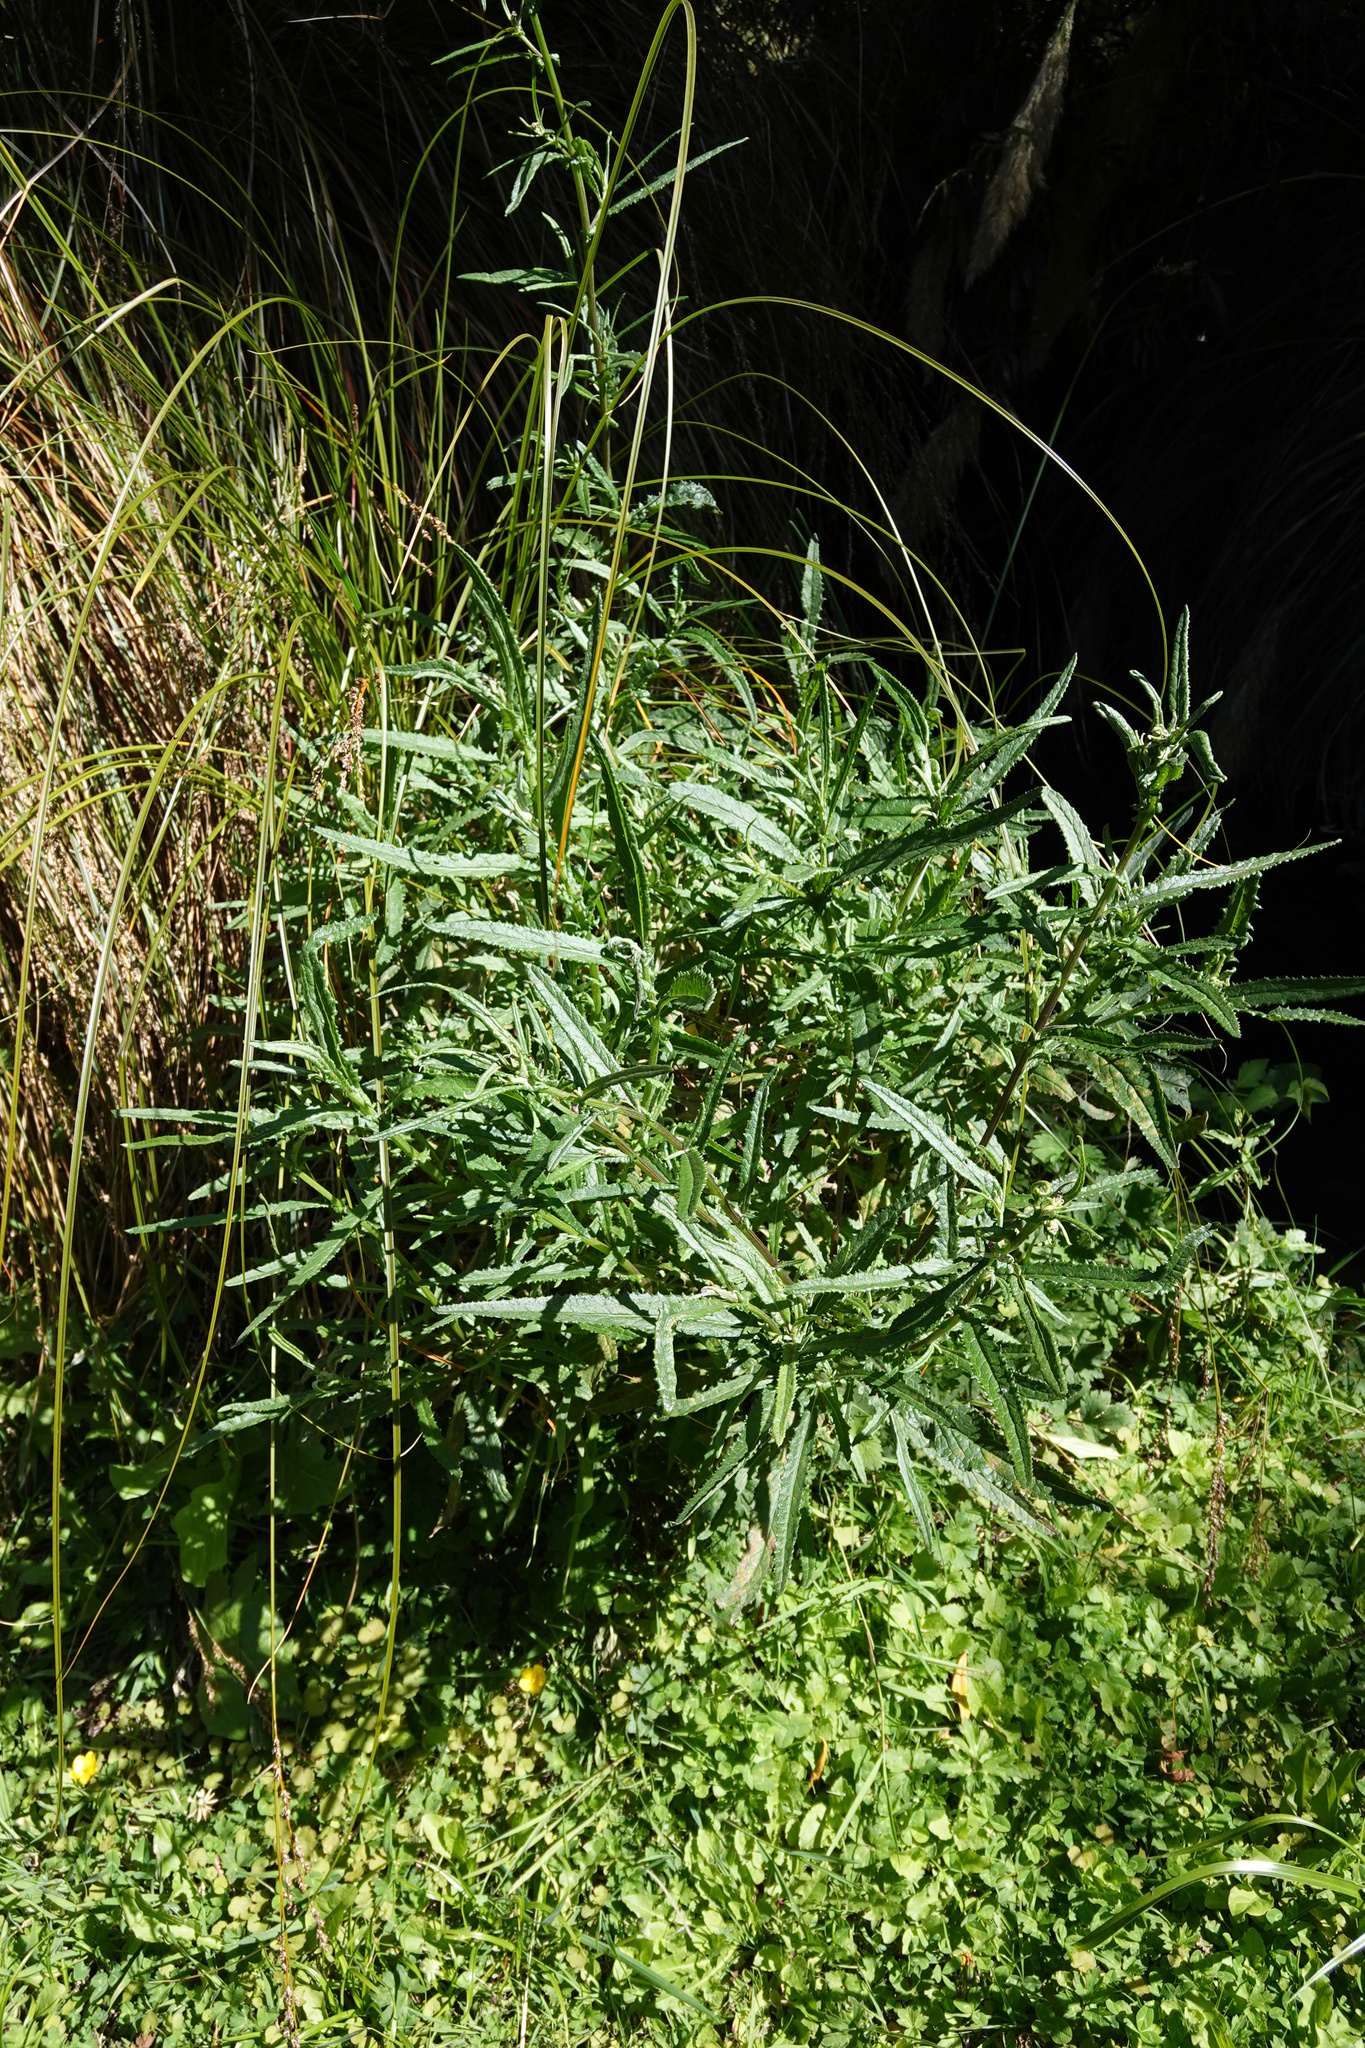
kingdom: Plantae
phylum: Tracheophyta
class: Magnoliopsida
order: Asterales
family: Asteraceae
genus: Senecio
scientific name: Senecio minimus
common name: Toothed fireweed
